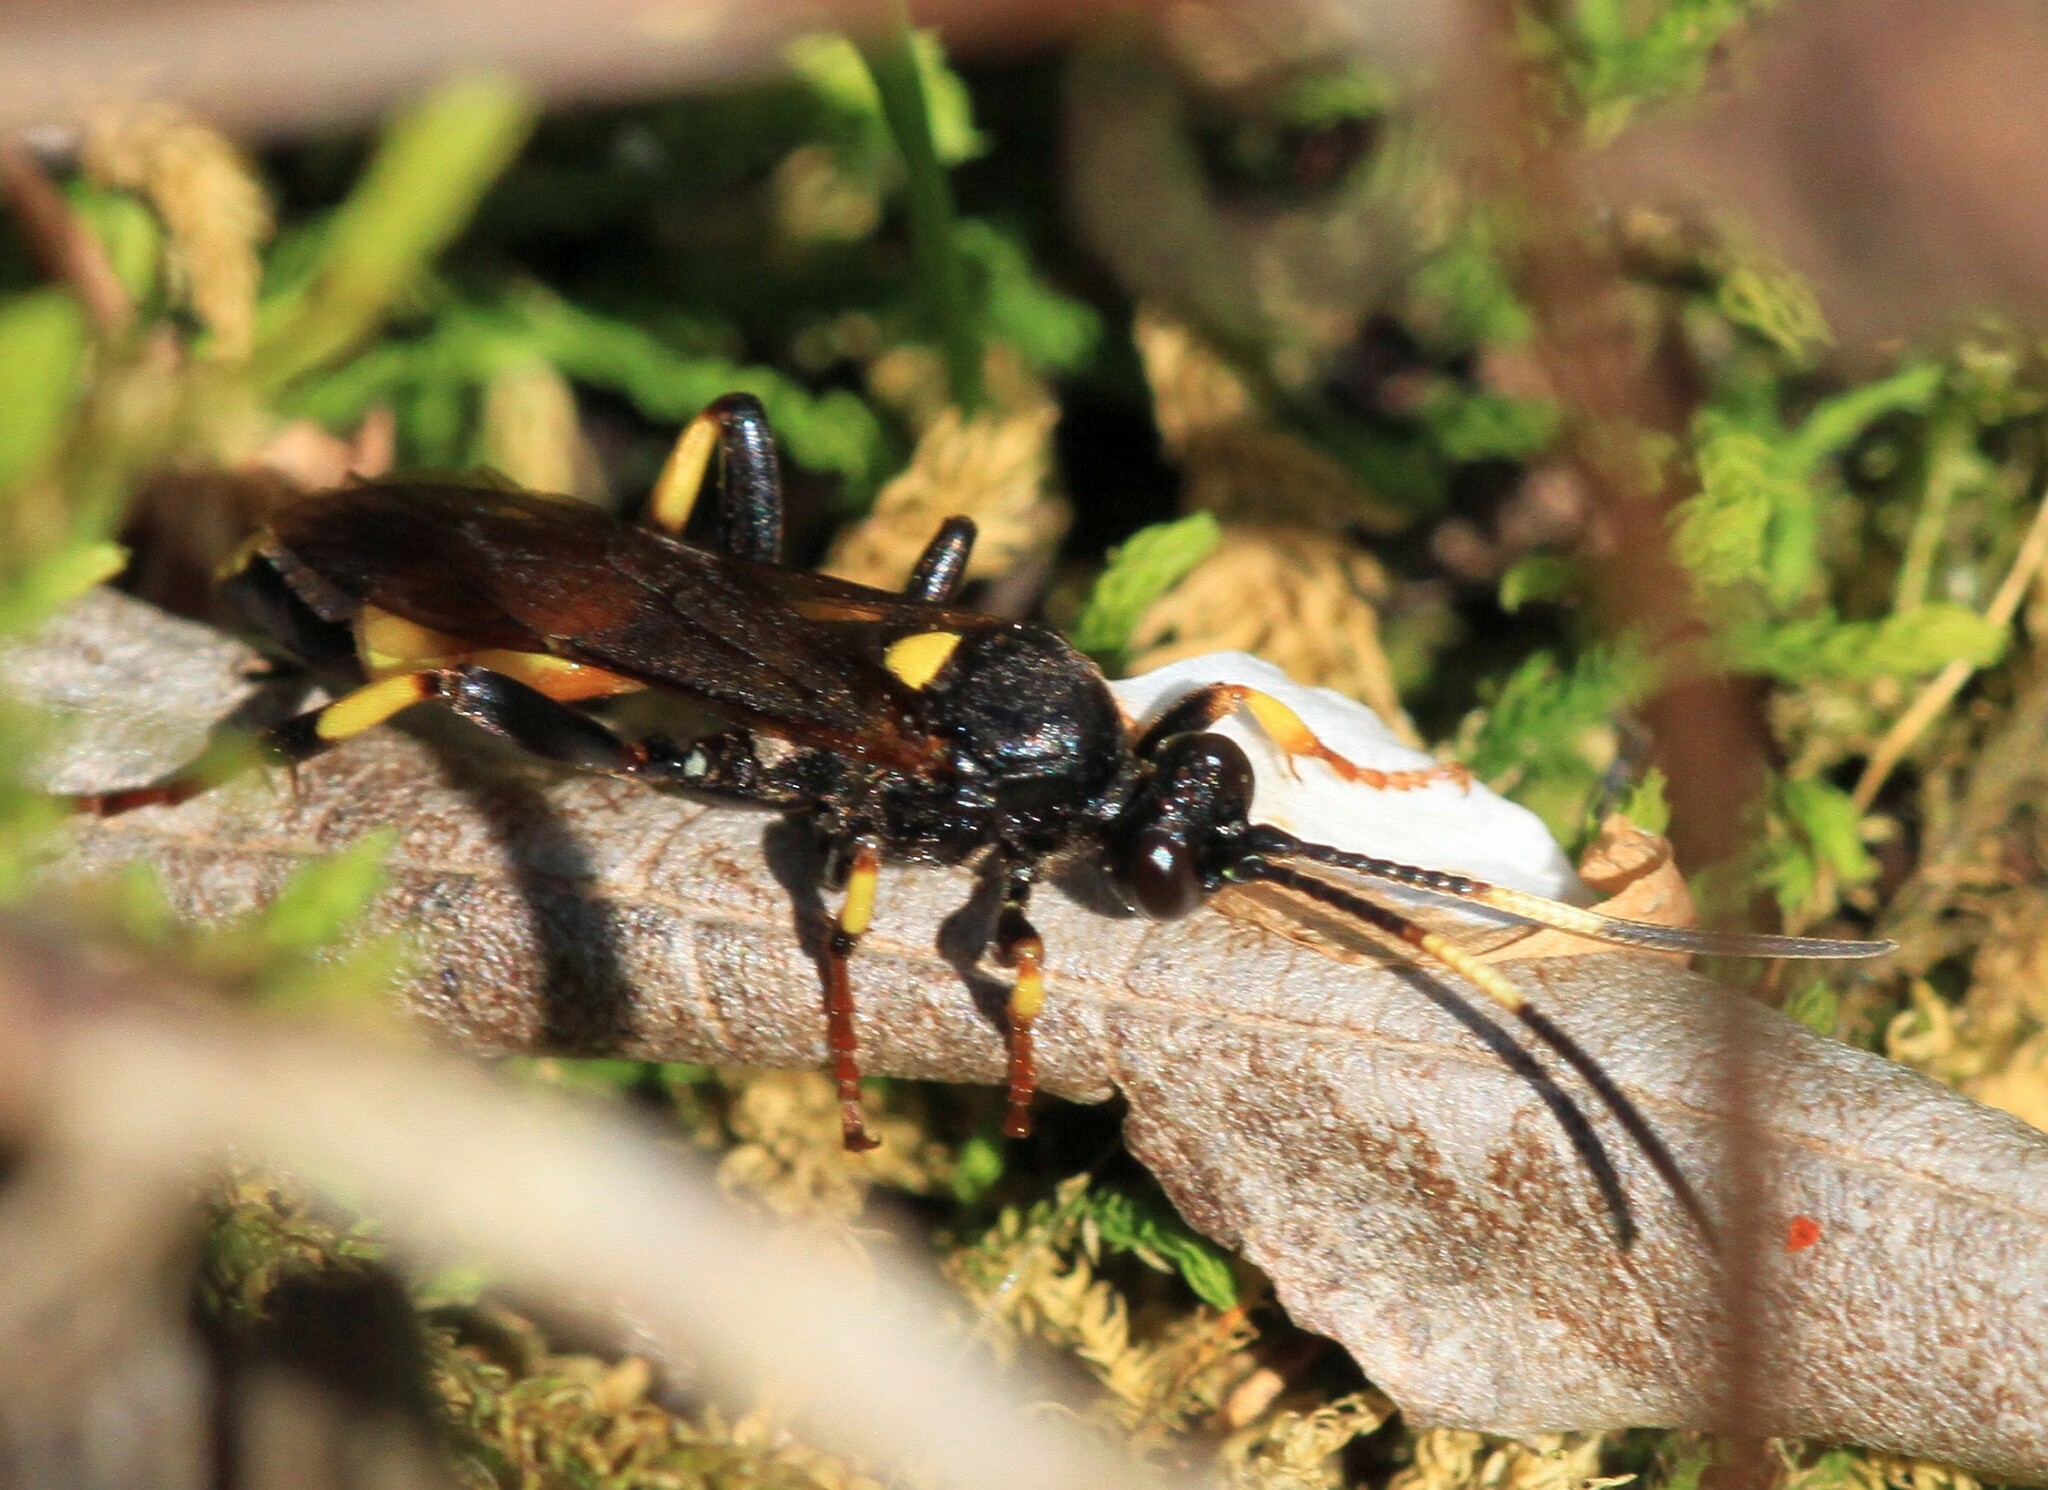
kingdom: Animalia
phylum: Arthropoda
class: Insecta
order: Hymenoptera
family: Ichneumonidae
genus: Ichneumon
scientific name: Ichneumon stramentor
